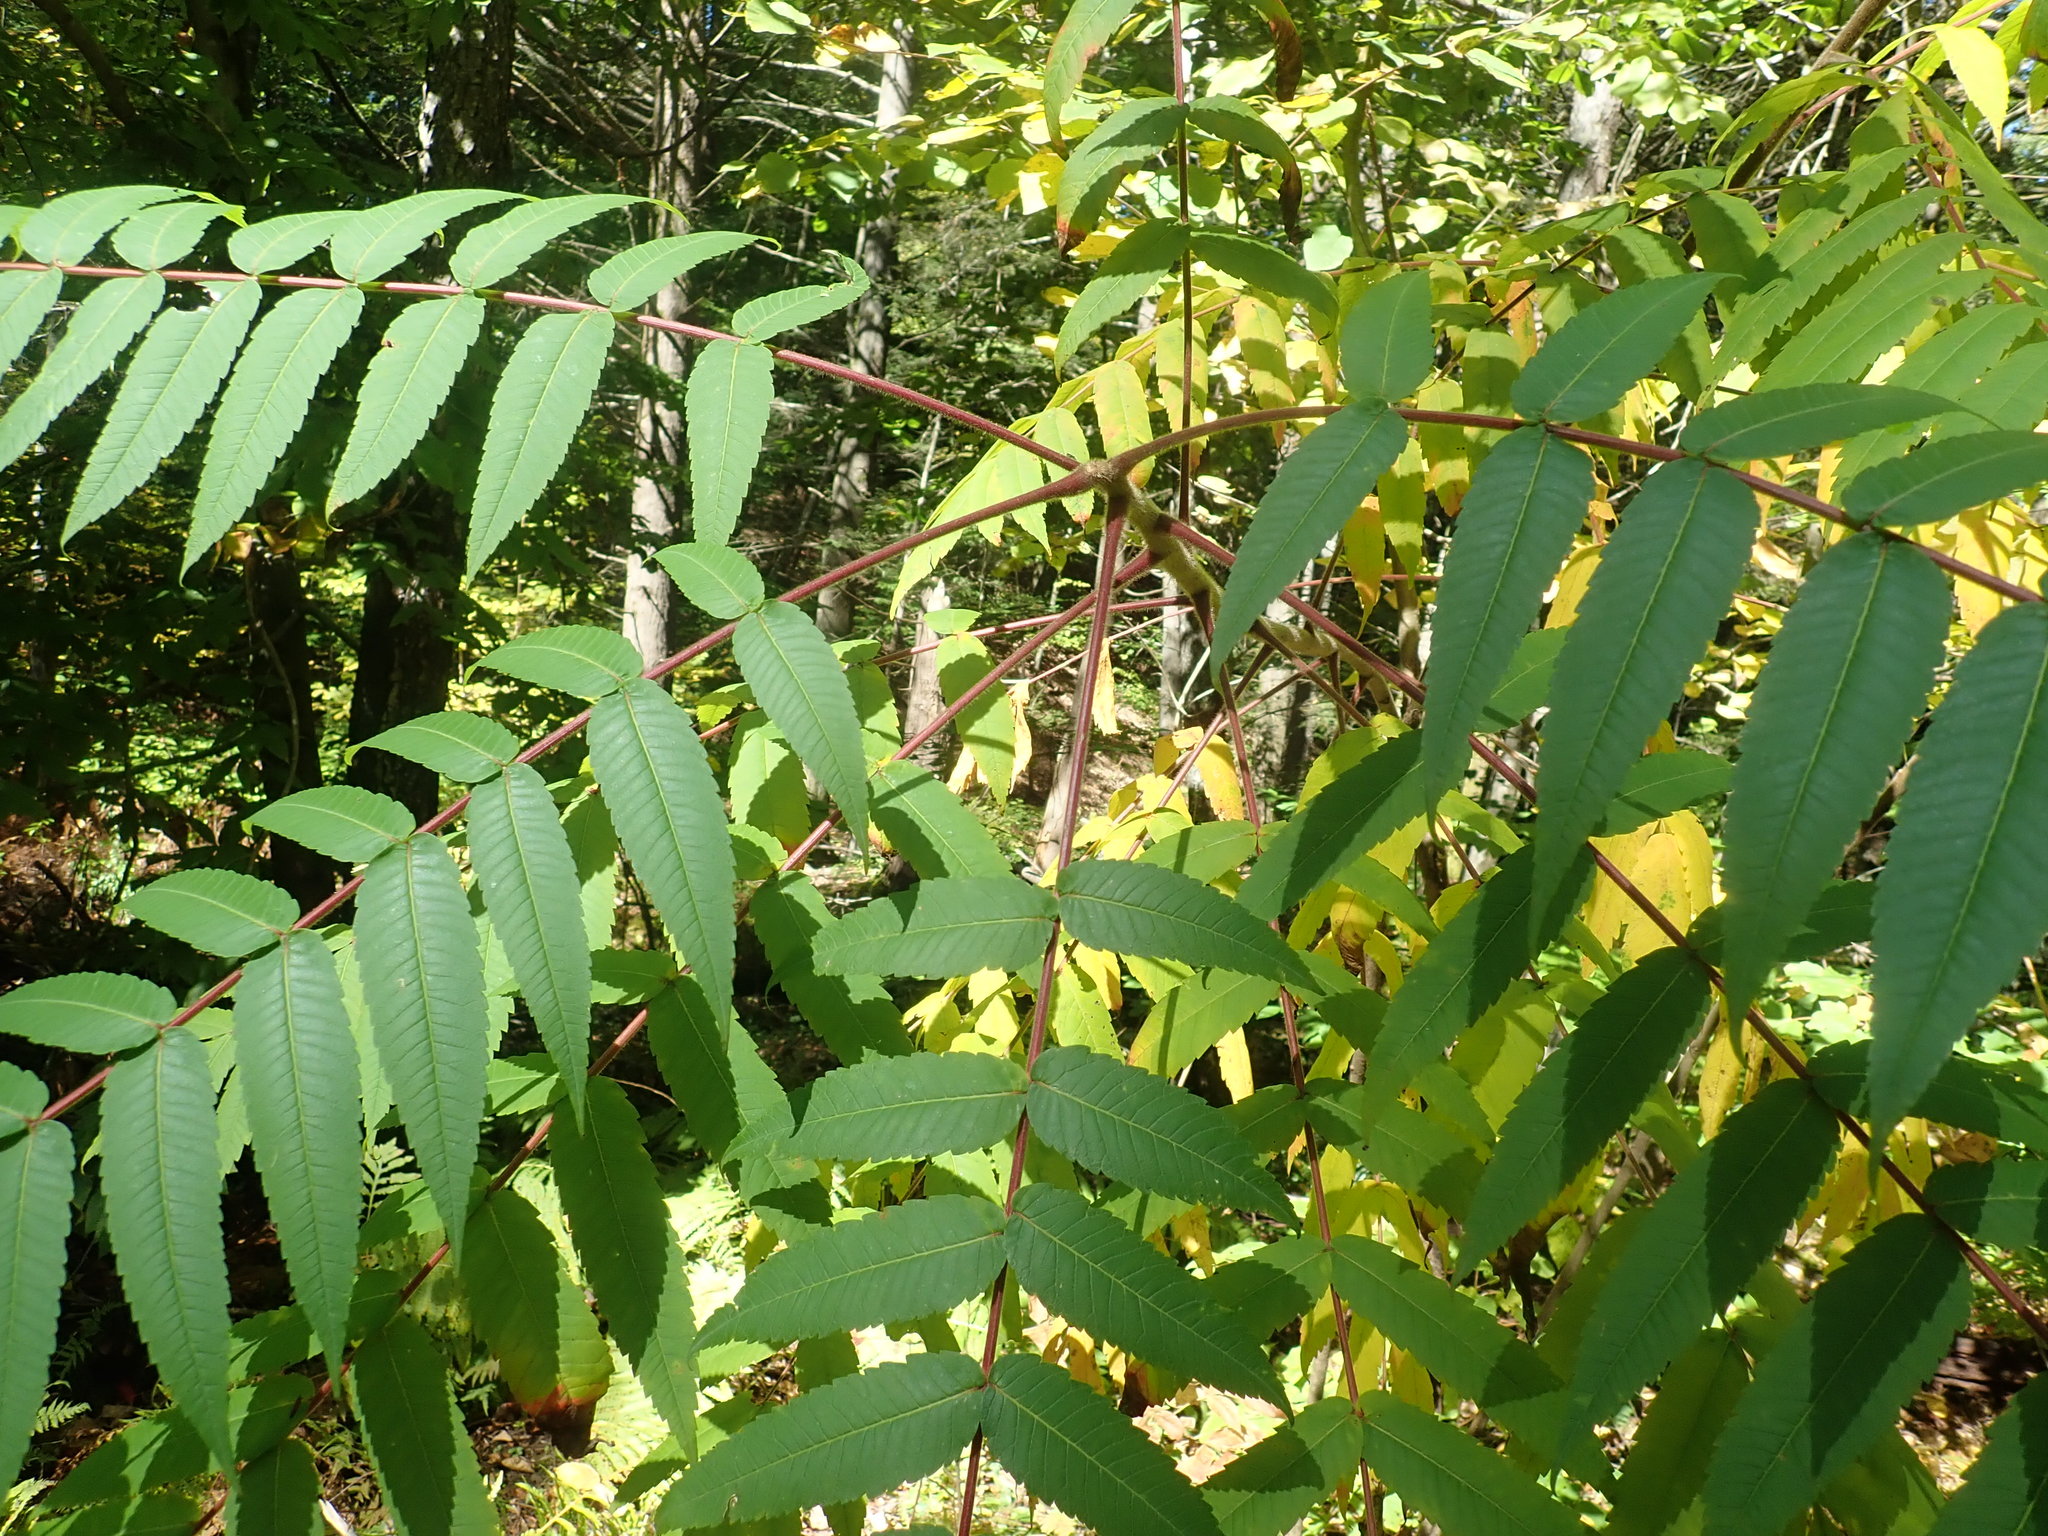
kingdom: Plantae
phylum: Tracheophyta
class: Magnoliopsida
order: Sapindales
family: Anacardiaceae
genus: Rhus
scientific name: Rhus typhina
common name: Staghorn sumac
